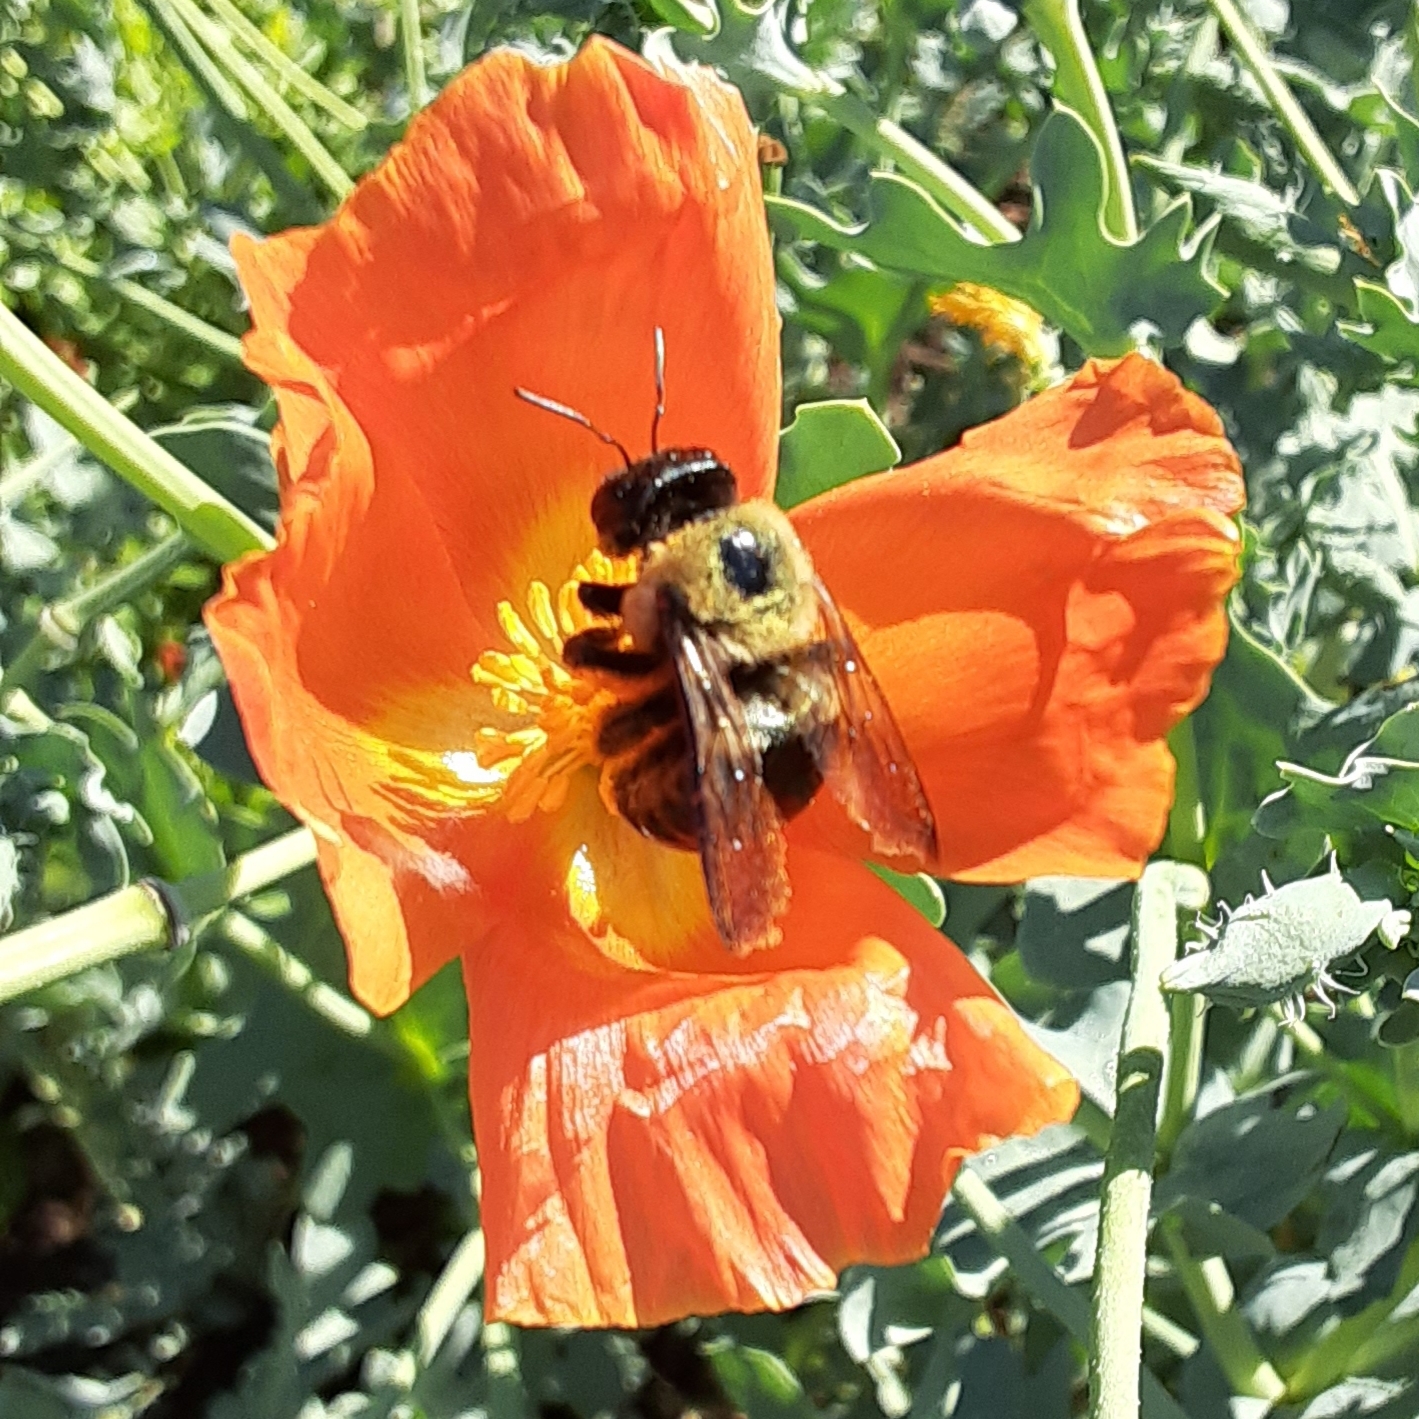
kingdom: Animalia
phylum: Arthropoda
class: Insecta
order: Hymenoptera
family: Apidae
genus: Xylocopa
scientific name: Xylocopa virginica
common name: Carpenter bee
